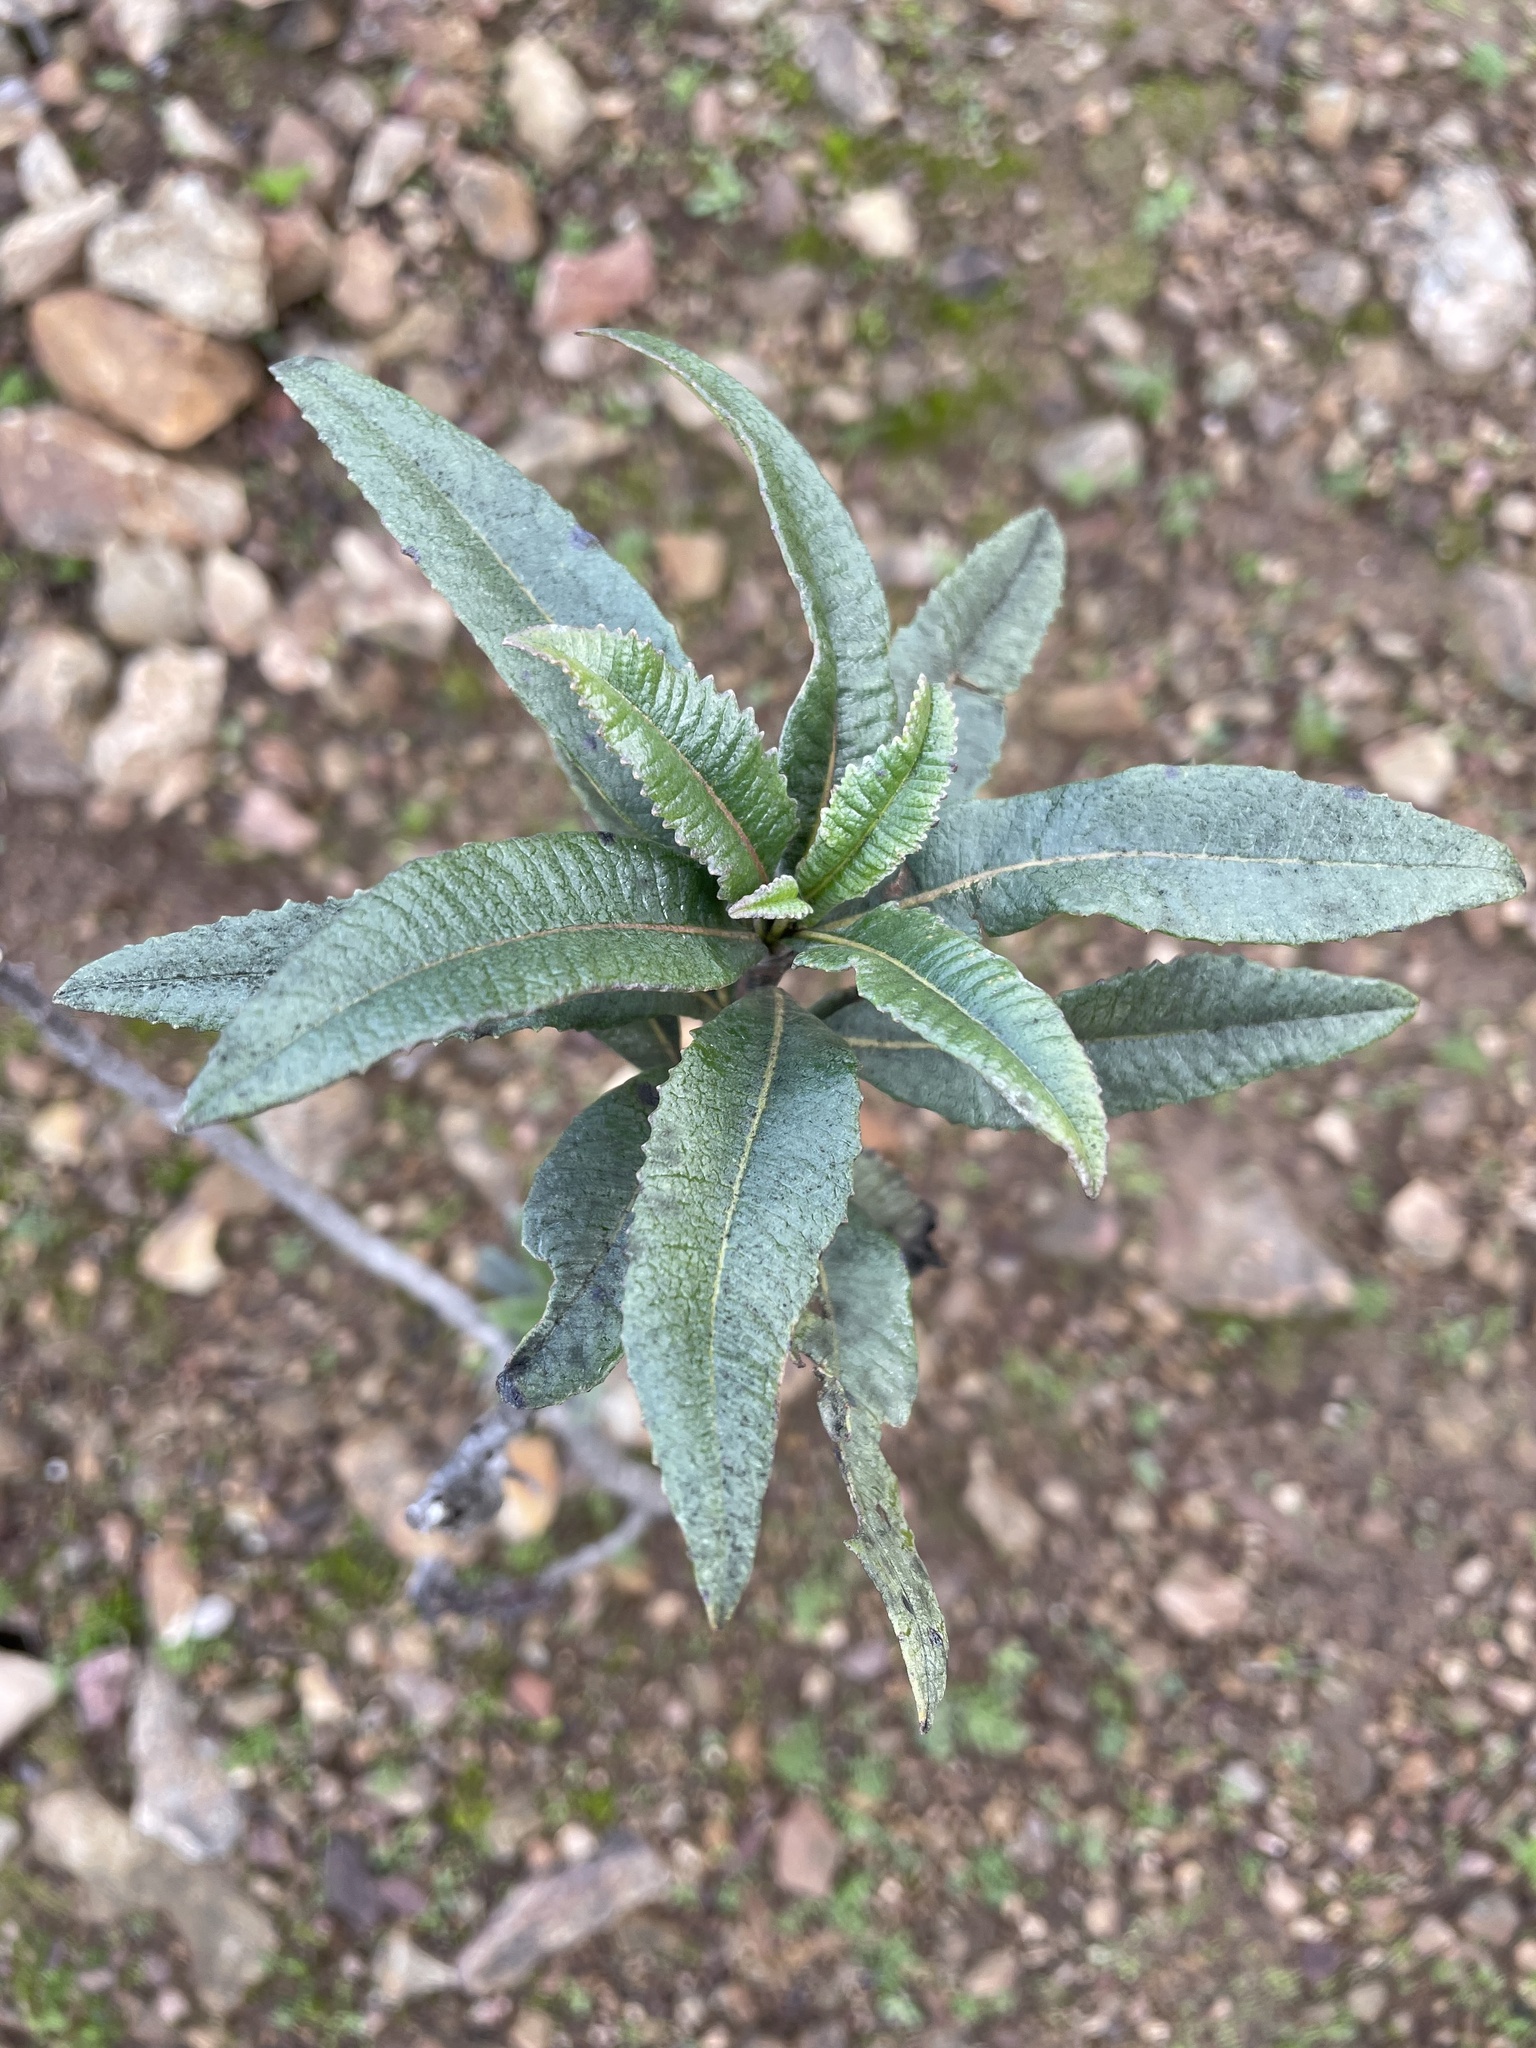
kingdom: Plantae
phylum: Tracheophyta
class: Magnoliopsida
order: Boraginales
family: Namaceae
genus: Eriodictyon
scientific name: Eriodictyon californicum
